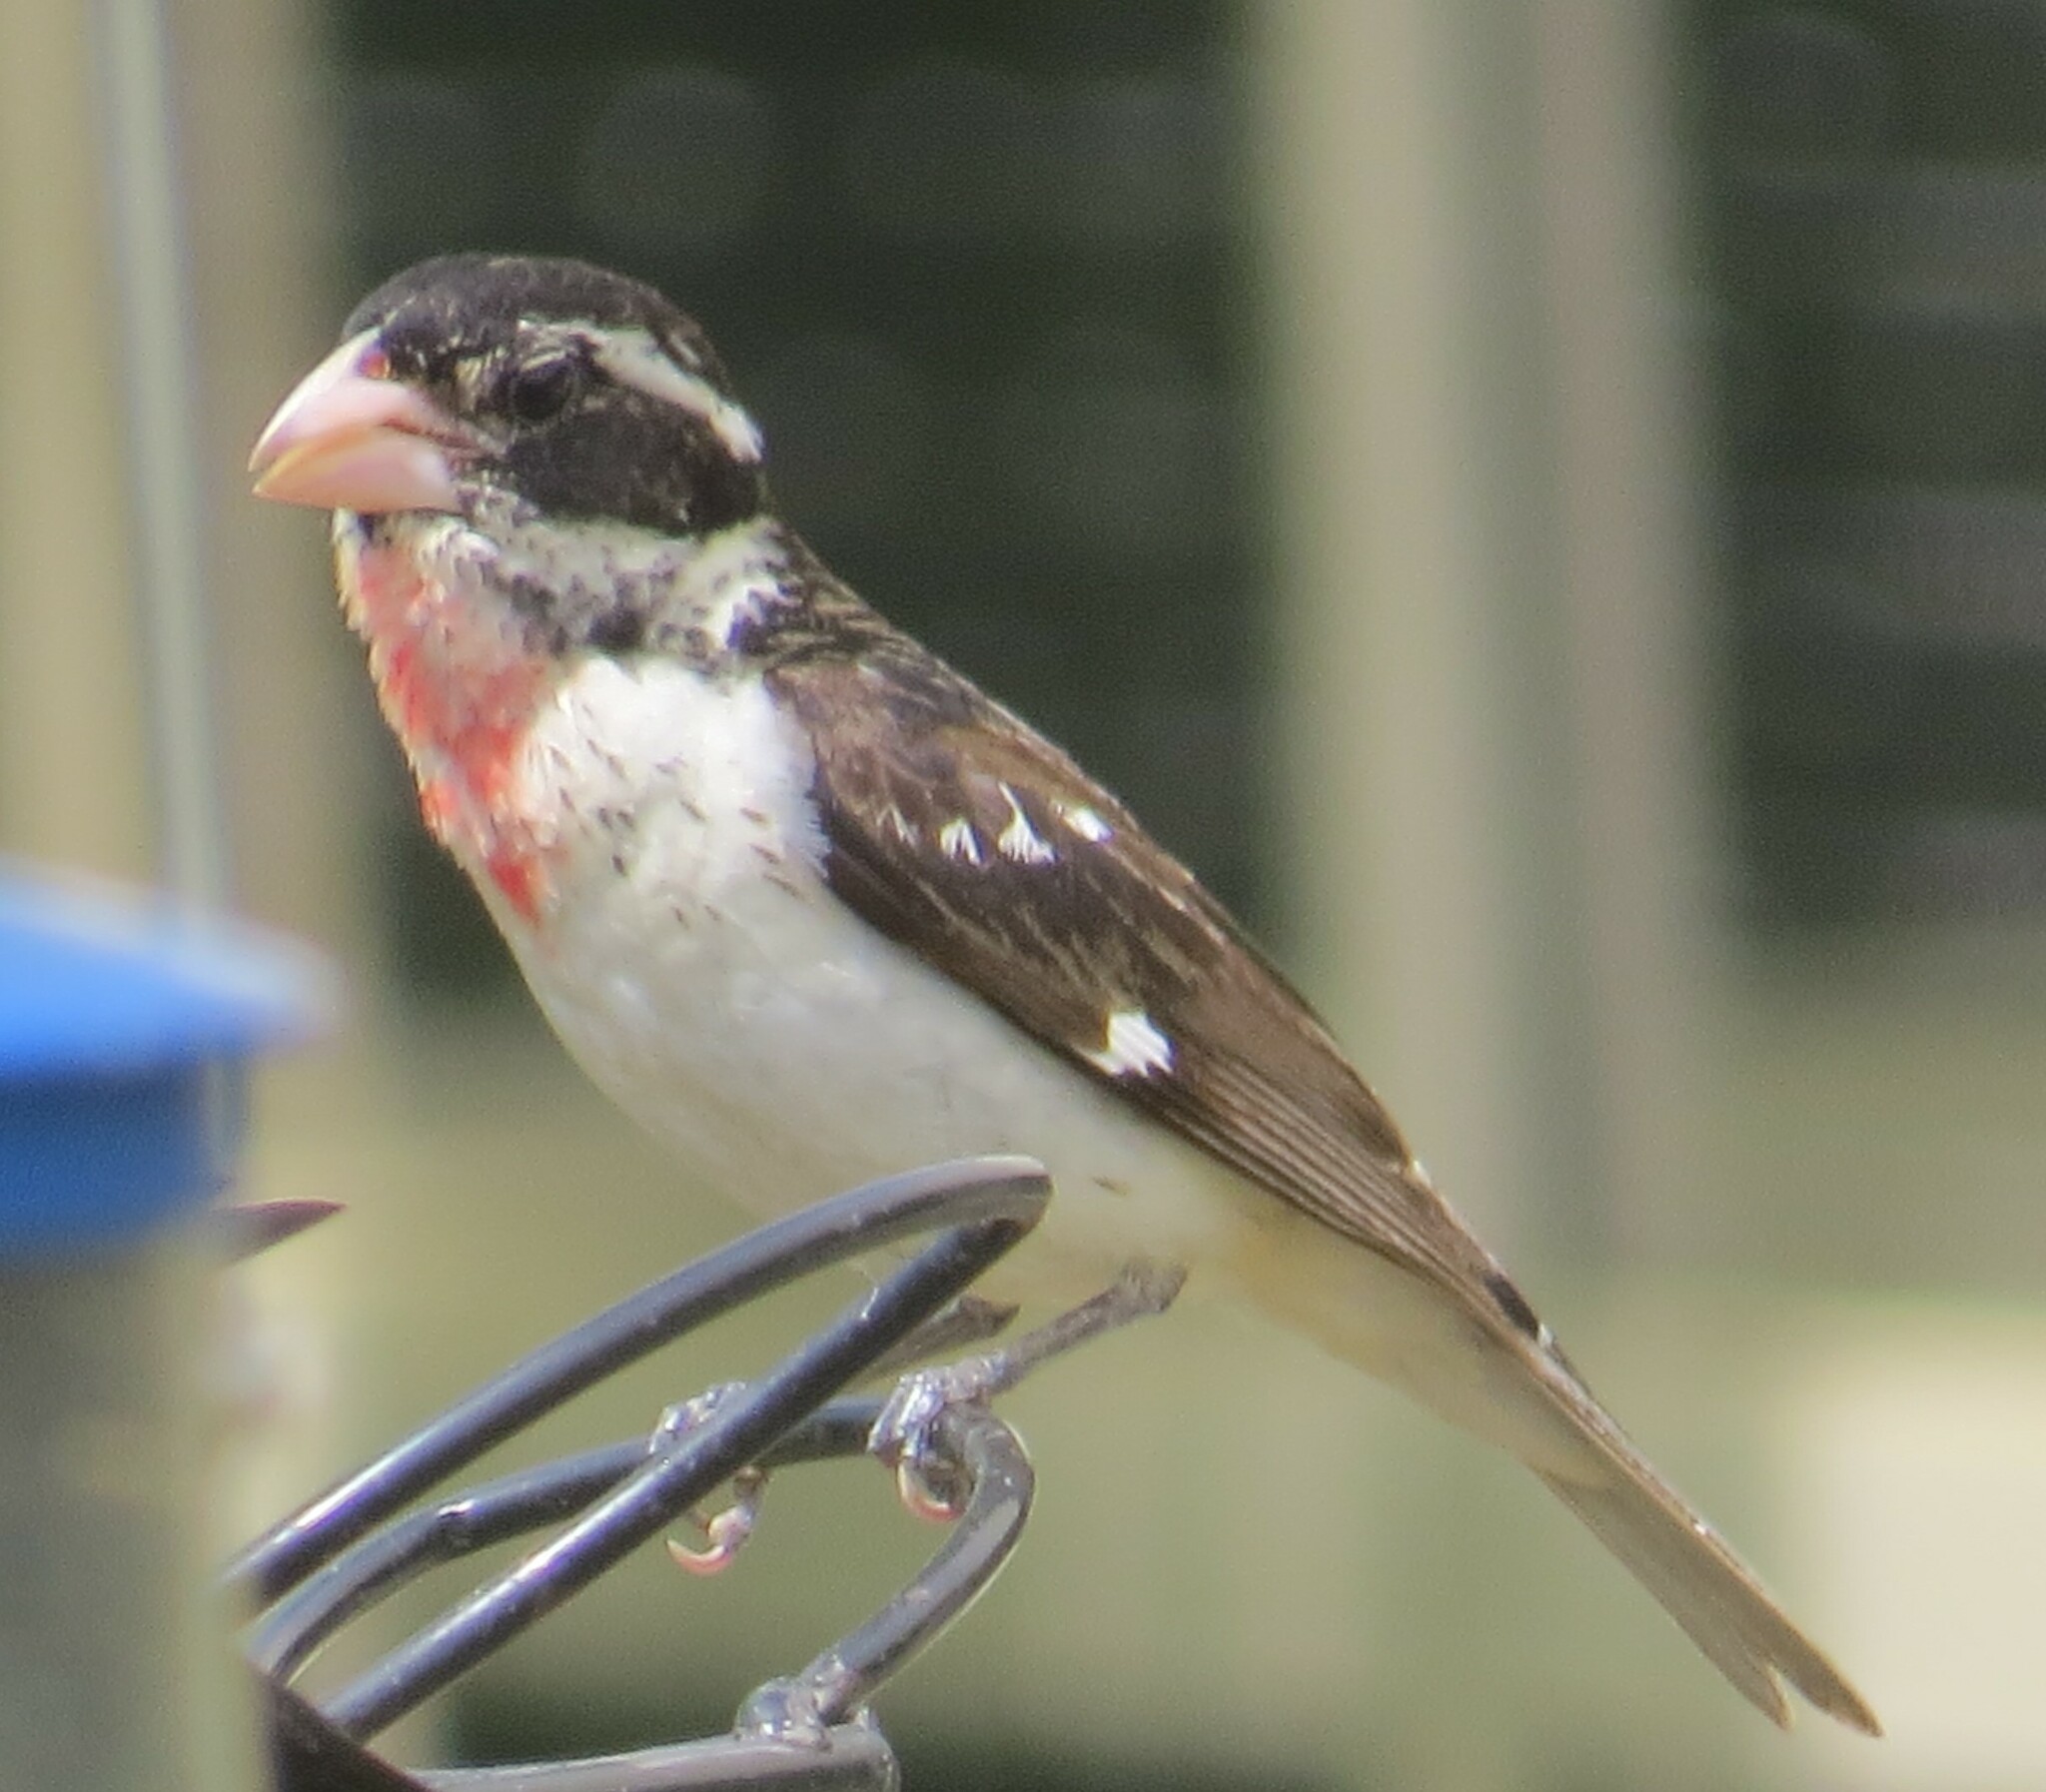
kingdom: Animalia
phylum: Chordata
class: Aves
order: Passeriformes
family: Cardinalidae
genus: Pheucticus
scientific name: Pheucticus ludovicianus
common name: Rose-breasted grosbeak
